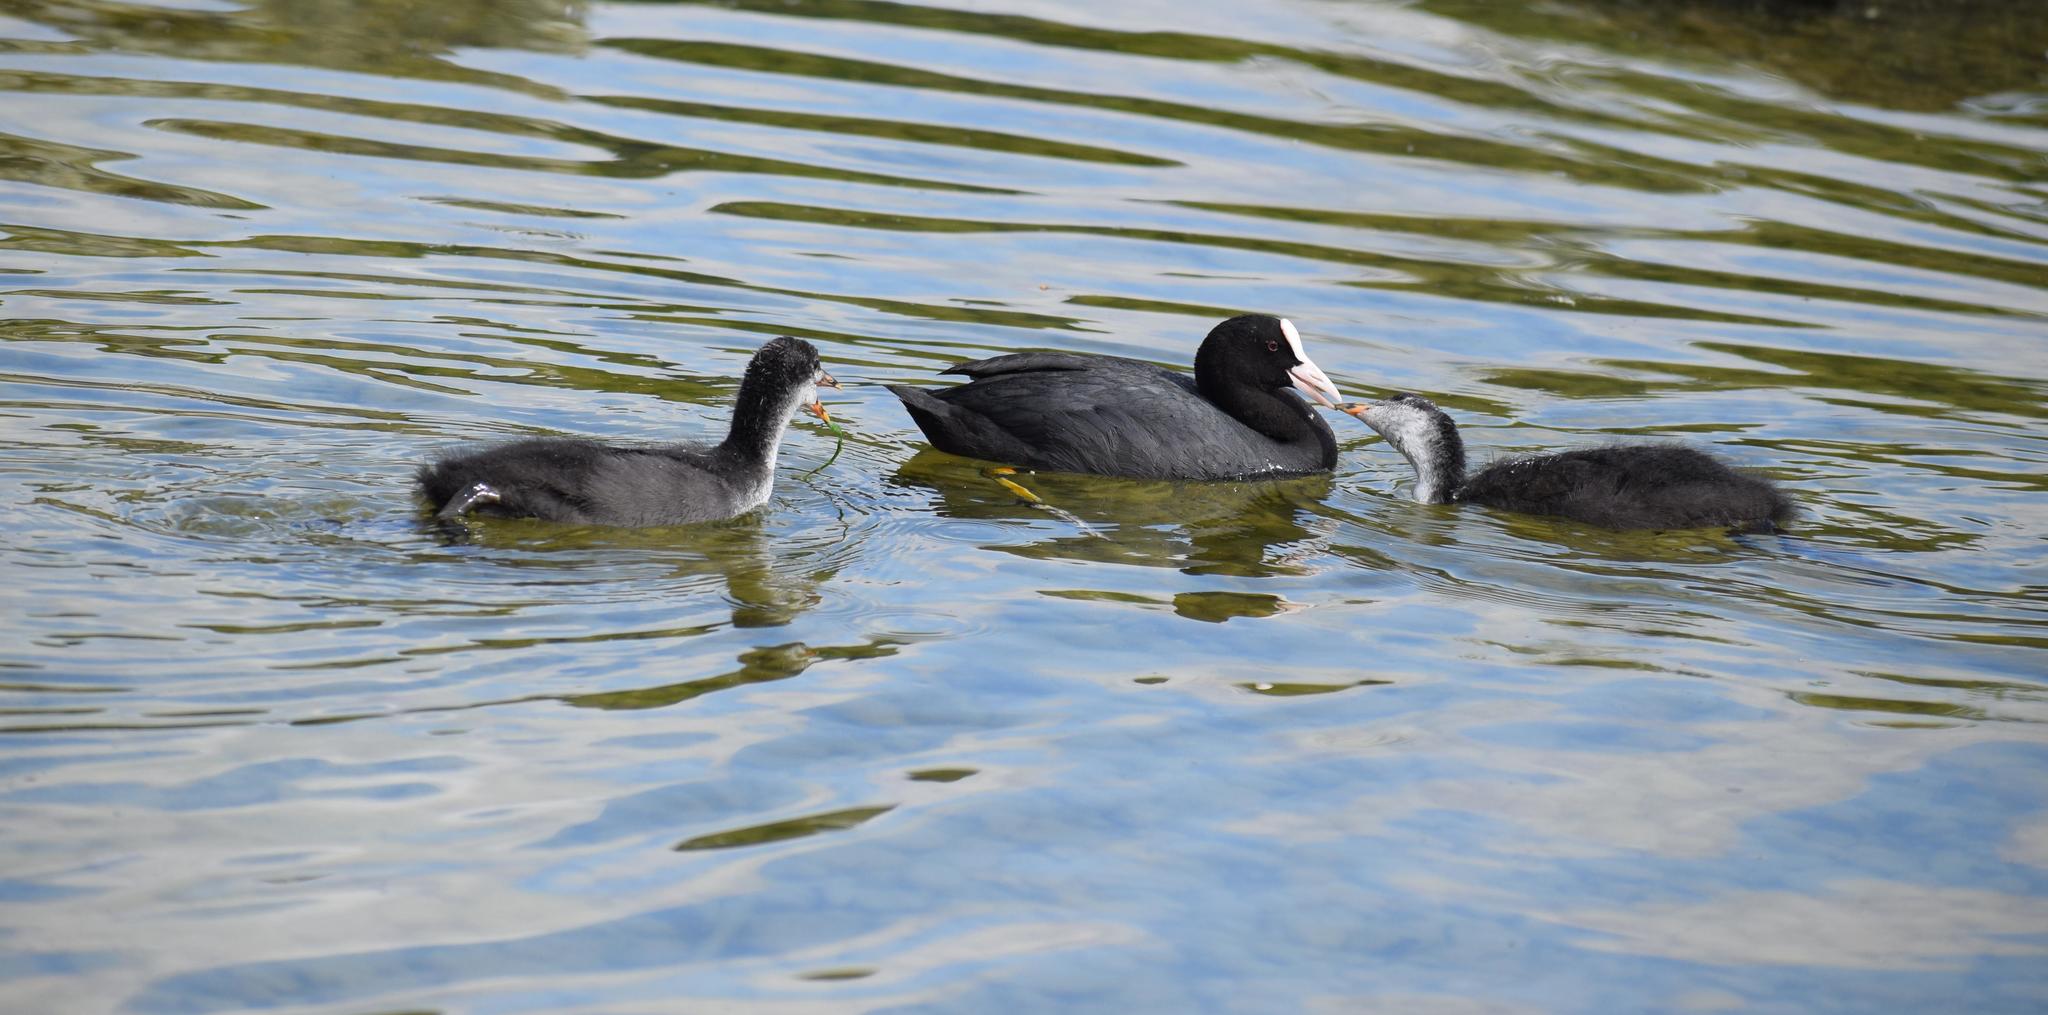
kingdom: Animalia
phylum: Chordata
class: Aves
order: Gruiformes
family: Rallidae
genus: Fulica
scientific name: Fulica atra
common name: Eurasian coot
